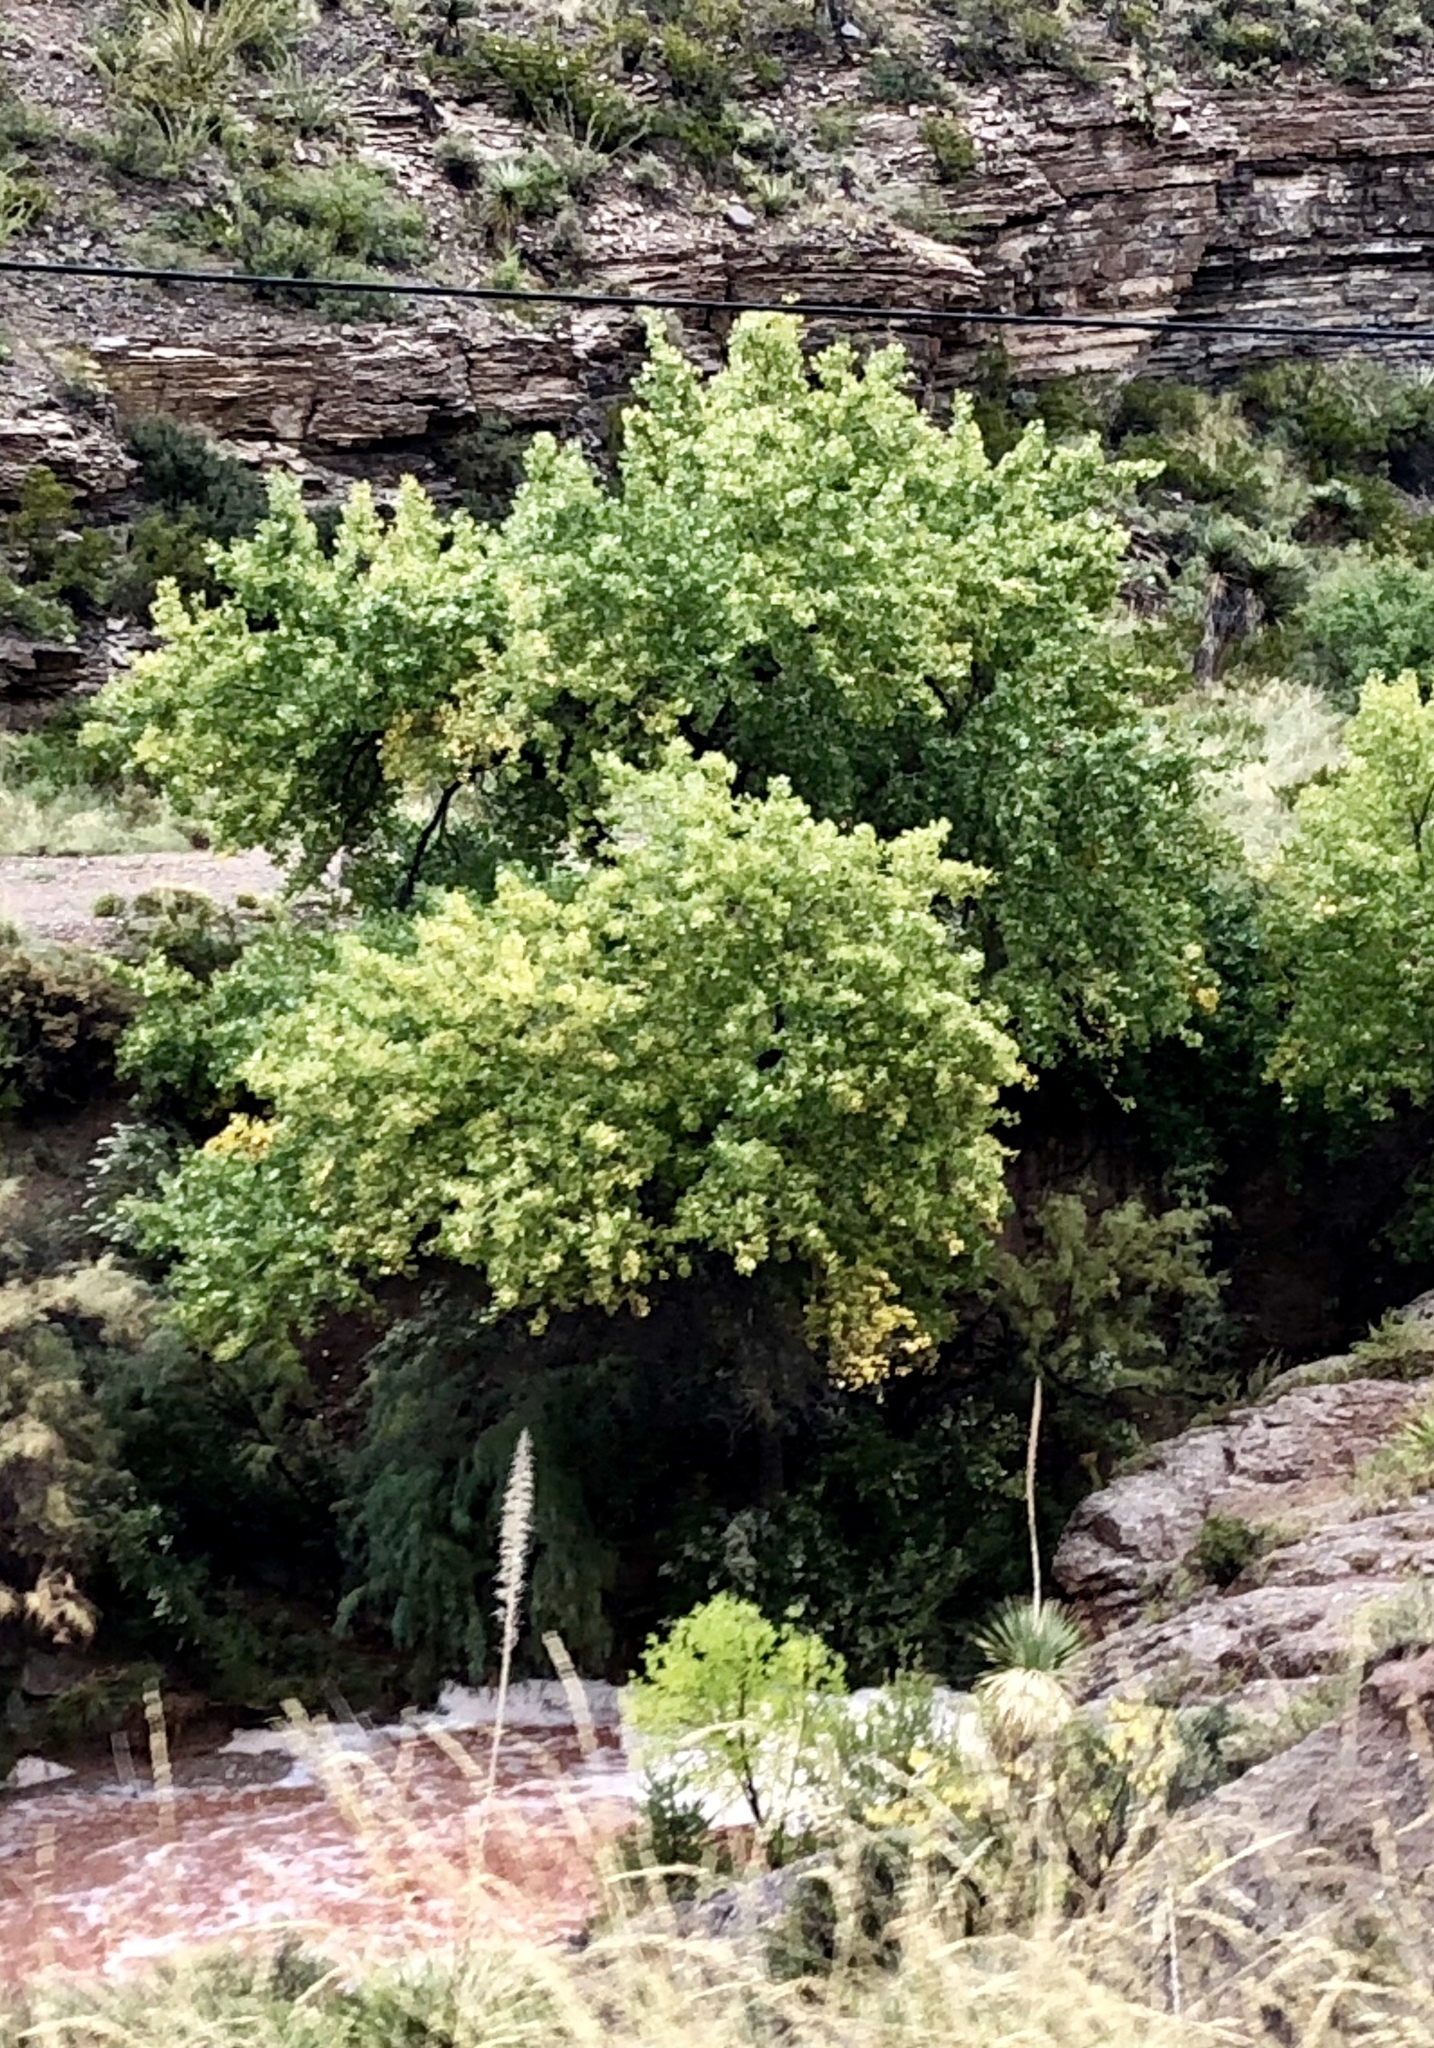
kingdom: Plantae
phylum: Tracheophyta
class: Magnoliopsida
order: Malpighiales
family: Salicaceae
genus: Populus
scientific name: Populus fremontii
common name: Fremont's cottonwood
